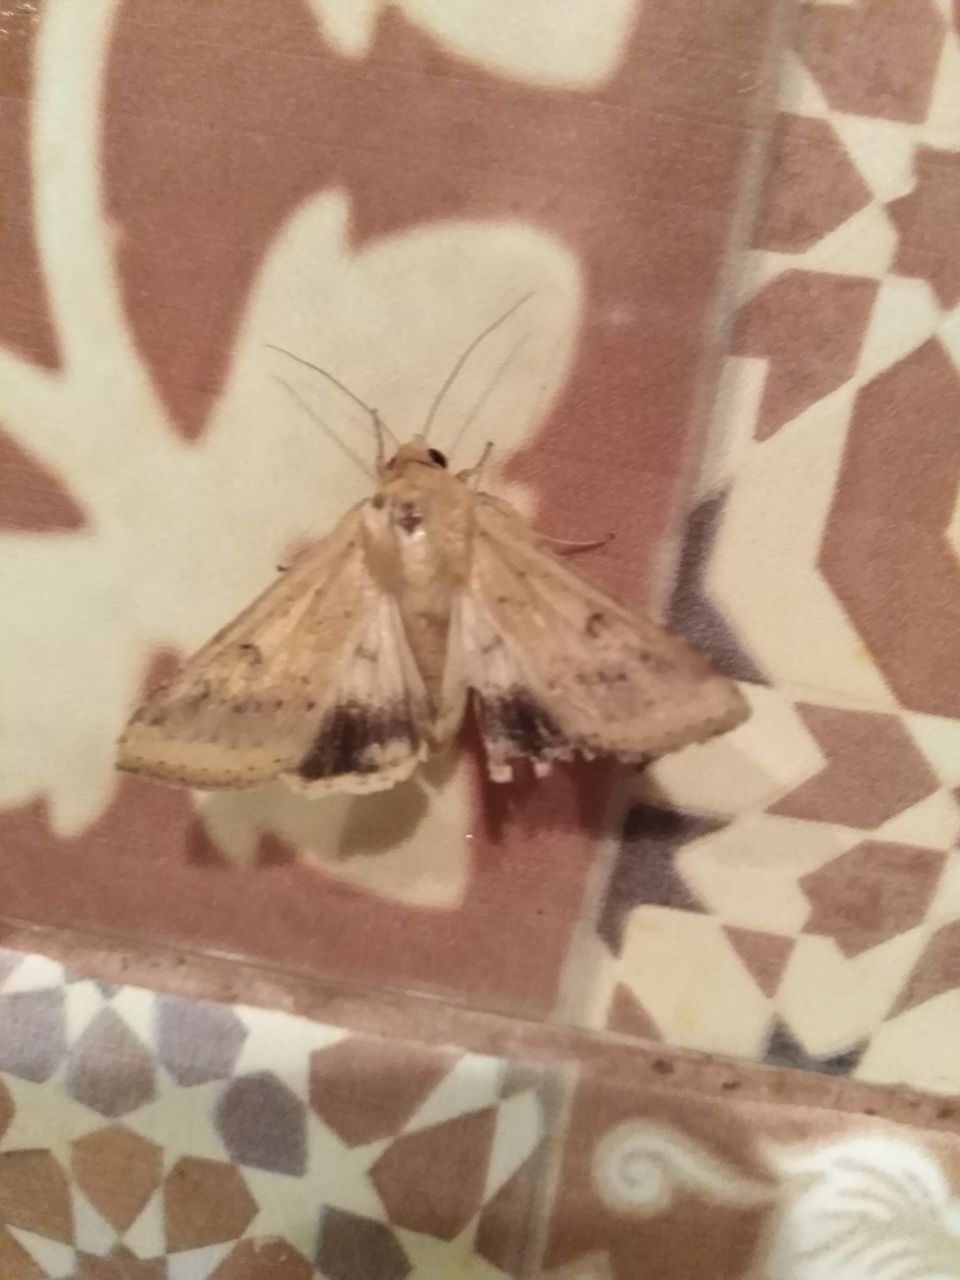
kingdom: Animalia
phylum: Arthropoda
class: Insecta
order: Lepidoptera
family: Noctuidae
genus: Helicoverpa
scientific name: Helicoverpa armigera
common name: Cotton bollworm
